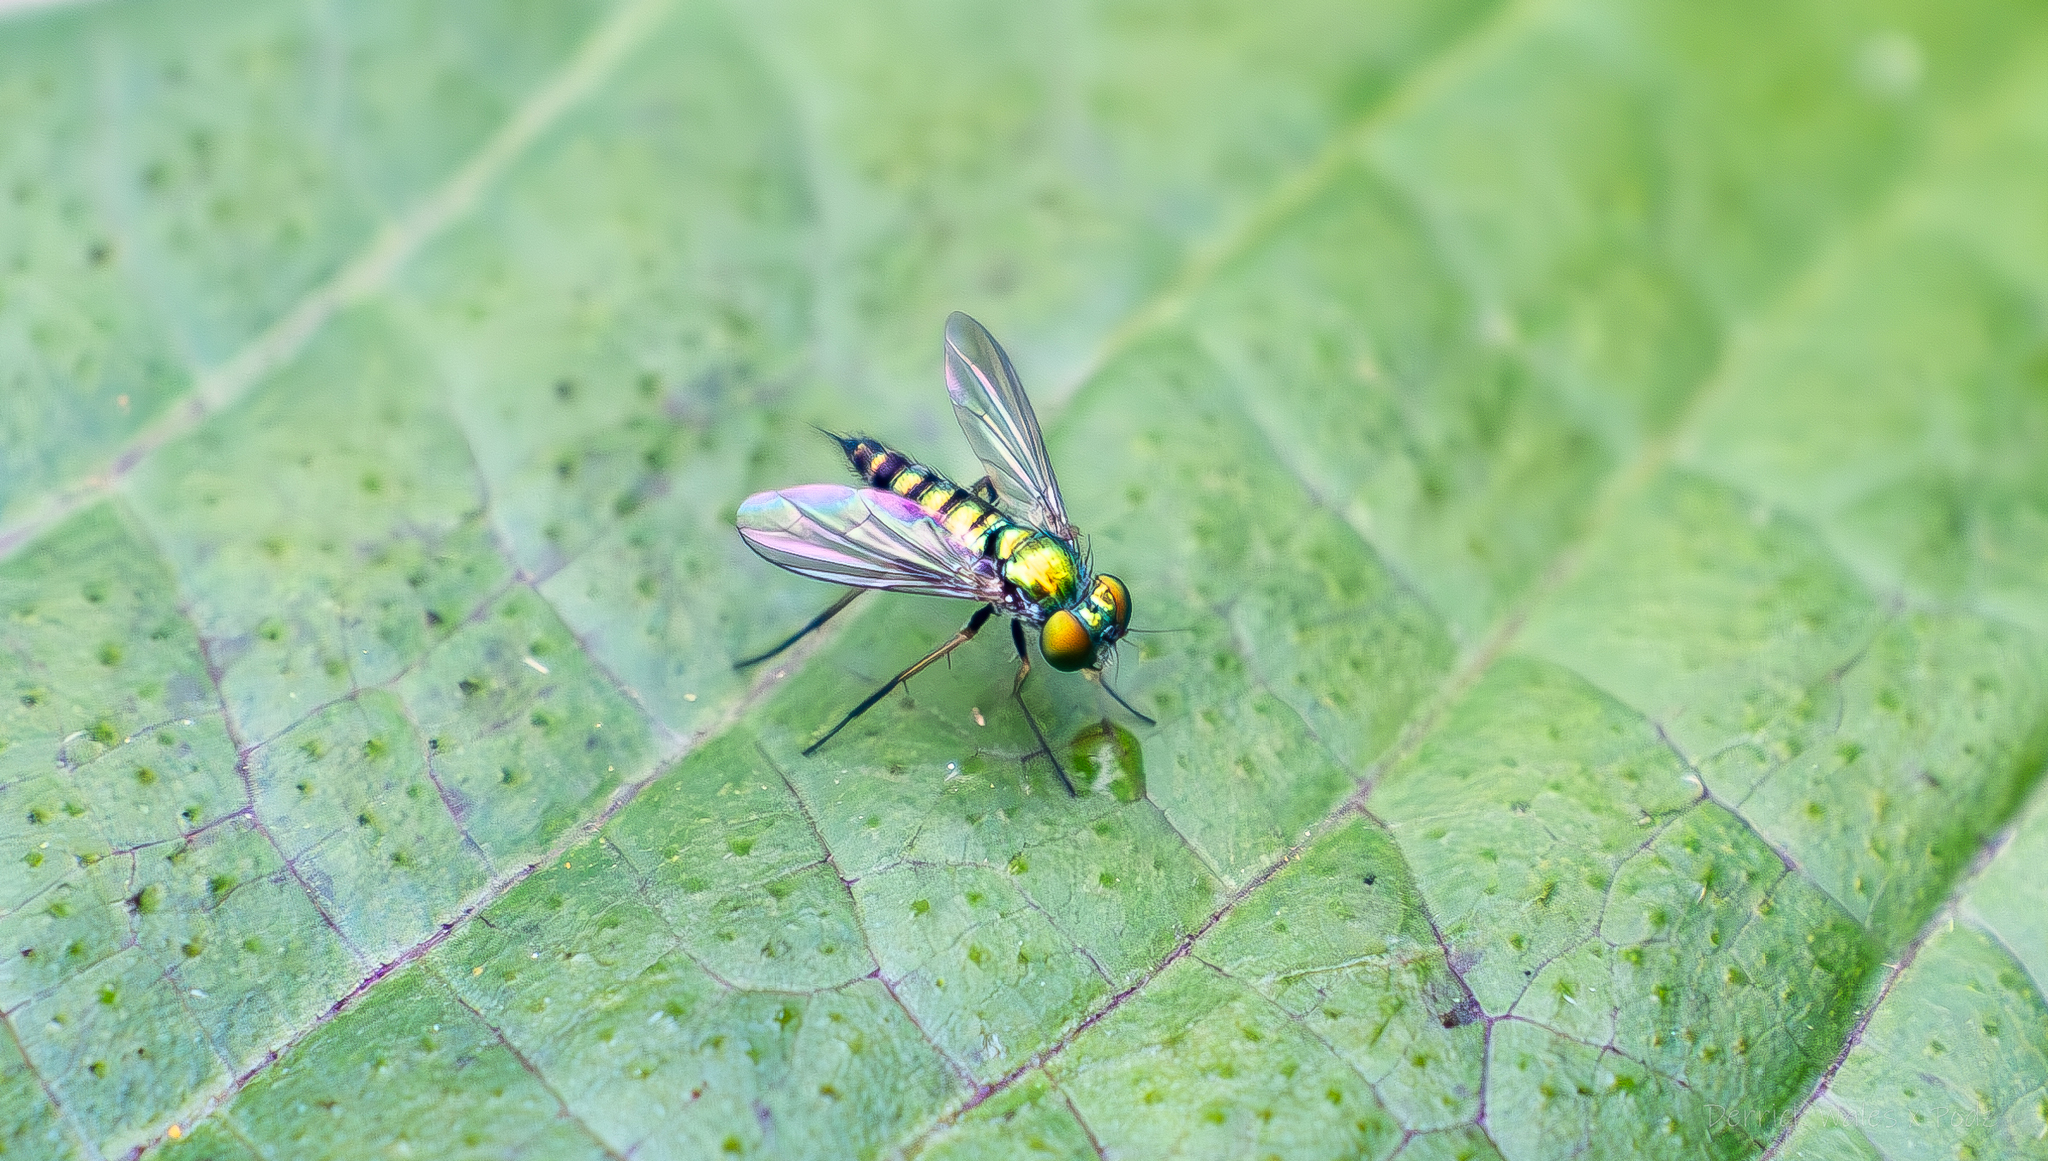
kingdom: Animalia
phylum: Arthropoda
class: Insecta
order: Diptera
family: Dolichopodidae
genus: Condylostylus
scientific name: Condylostylus
